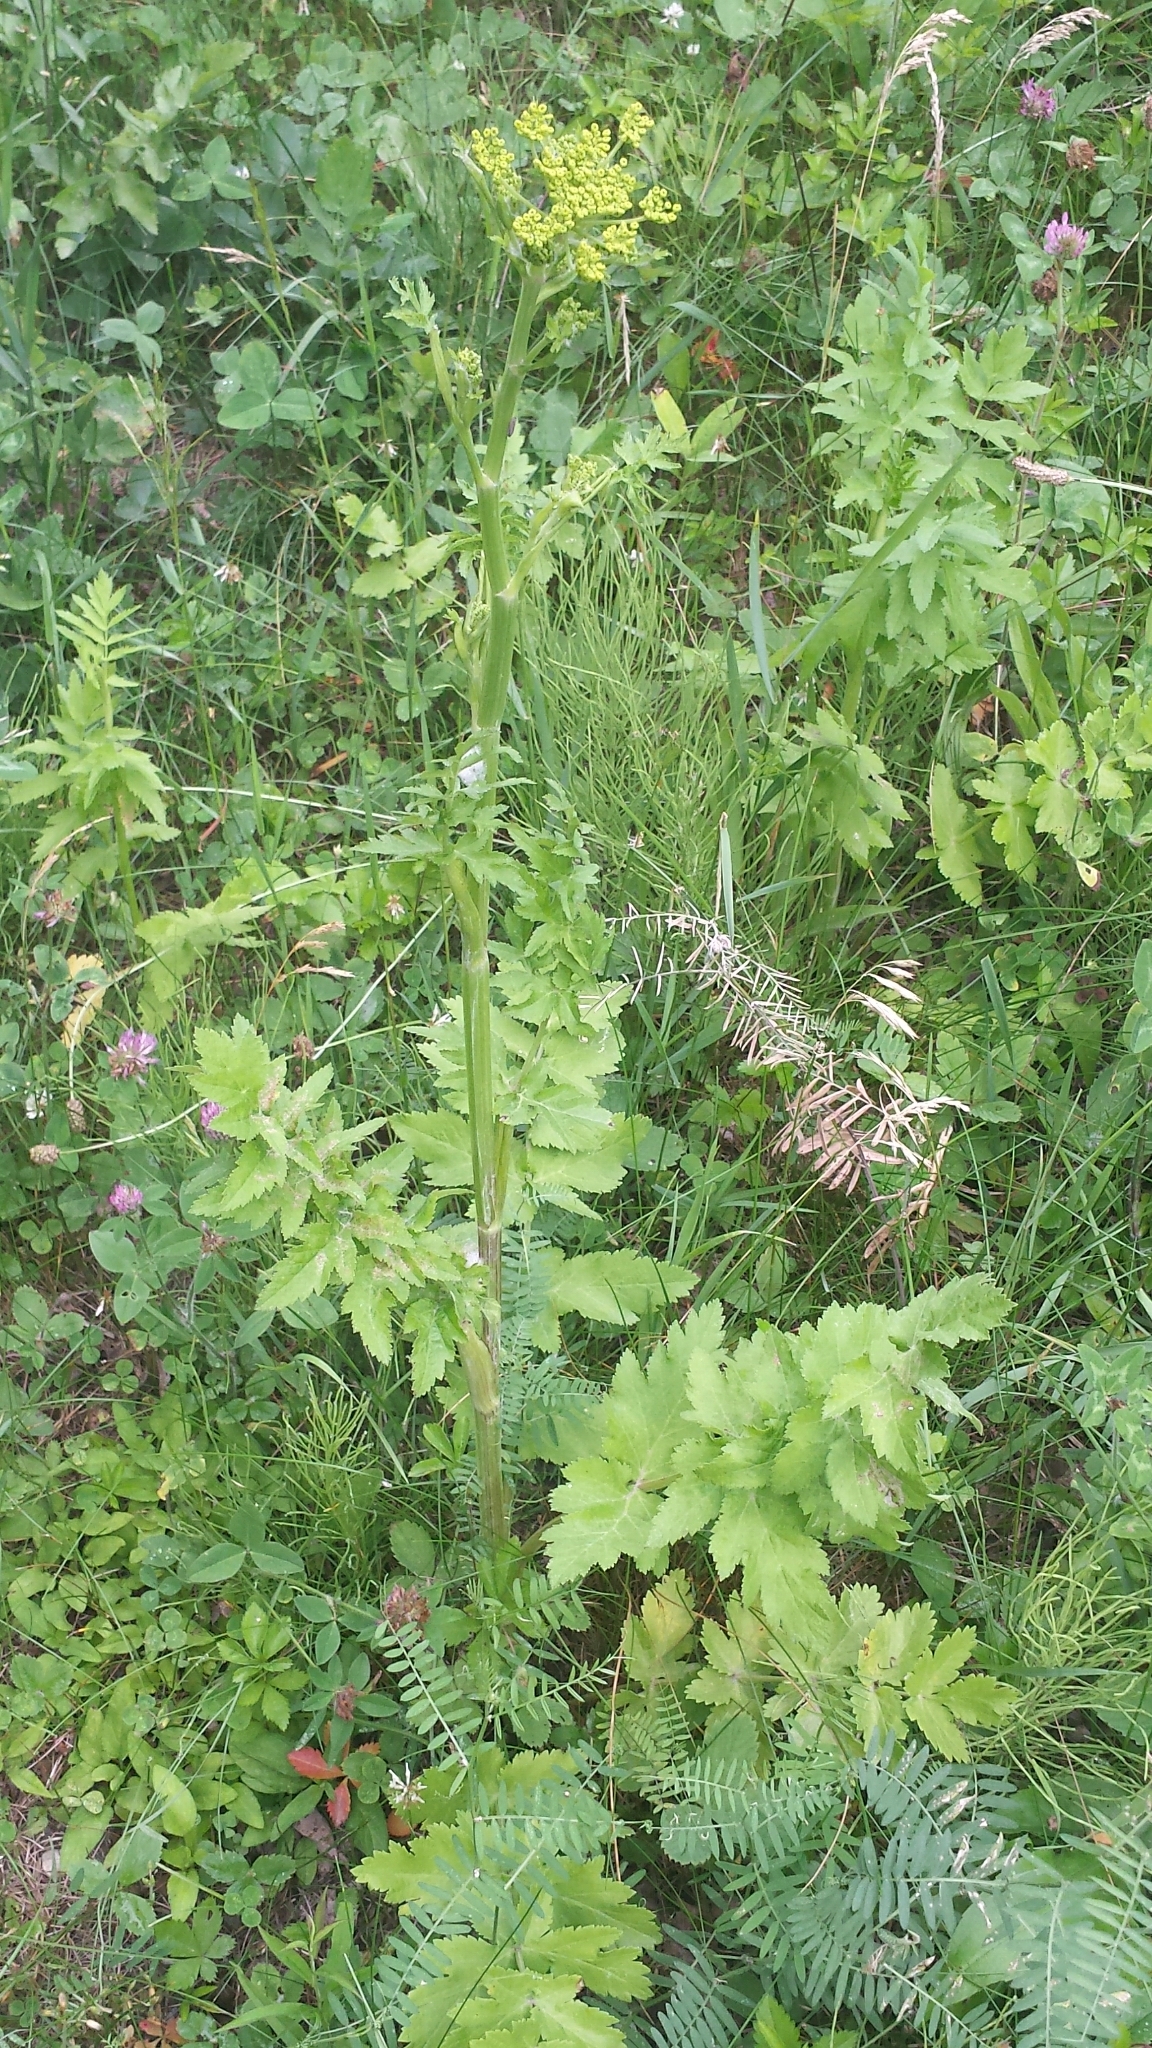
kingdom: Plantae
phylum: Tracheophyta
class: Magnoliopsida
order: Apiales
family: Apiaceae
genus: Pastinaca
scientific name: Pastinaca sativa
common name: Wild parsnip
